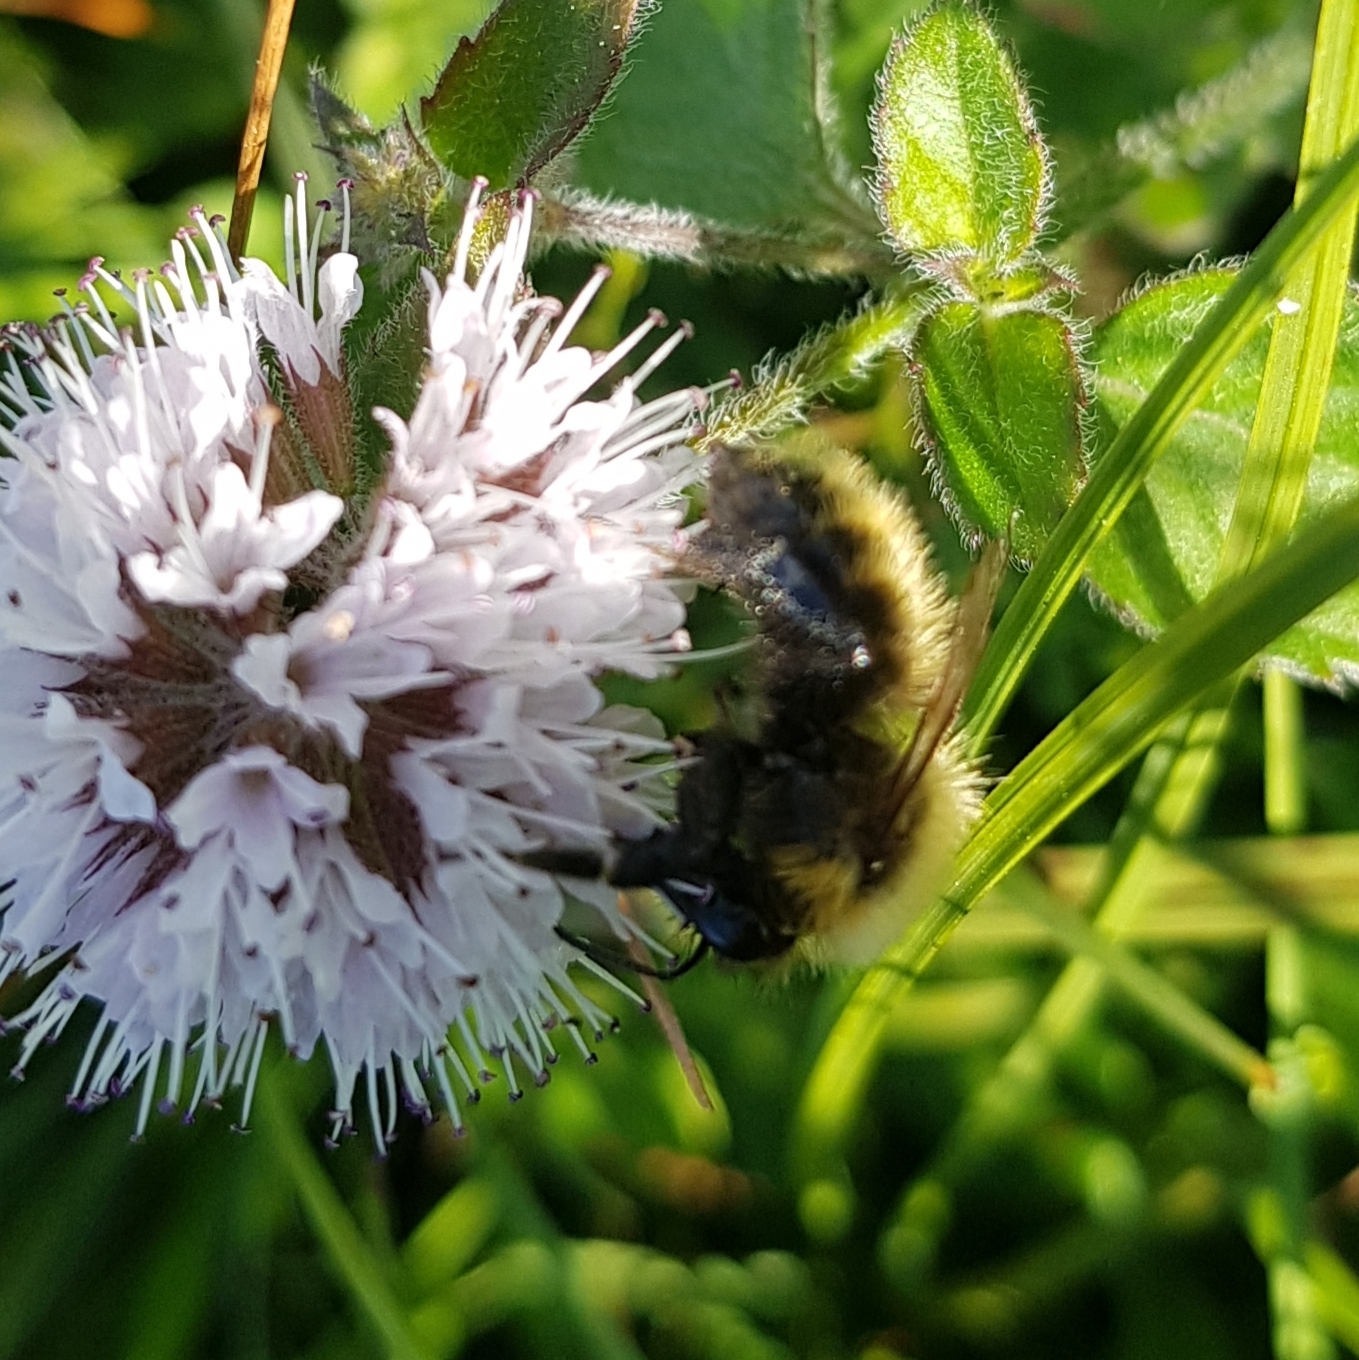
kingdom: Animalia
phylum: Arthropoda
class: Insecta
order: Hymenoptera
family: Apidae
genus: Bombus
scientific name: Bombus pascuorum
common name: Common carder bee
